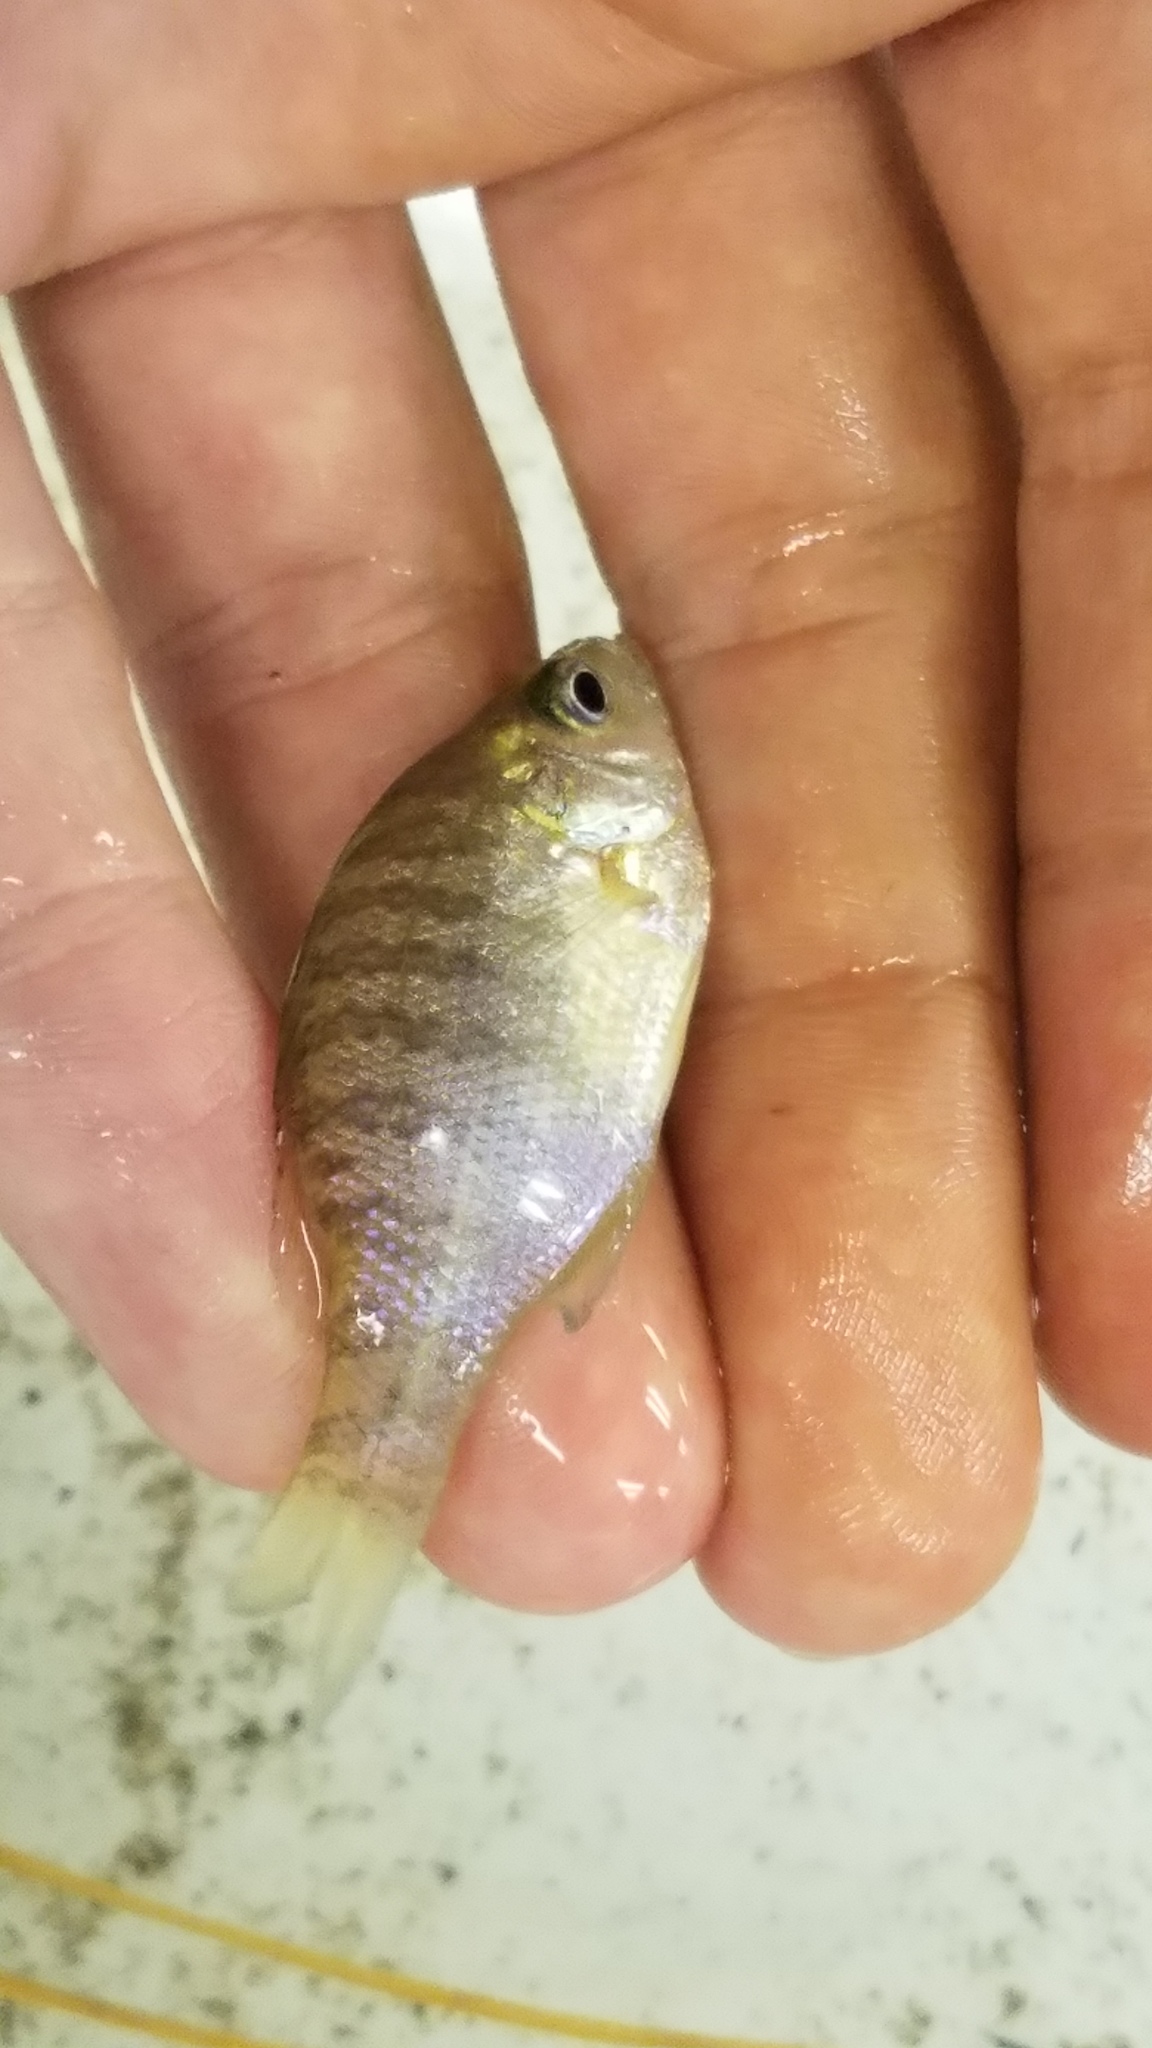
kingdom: Animalia
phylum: Chordata
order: Perciformes
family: Centrarchidae
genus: Lepomis
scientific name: Lepomis macrochirus
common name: Bluegill
